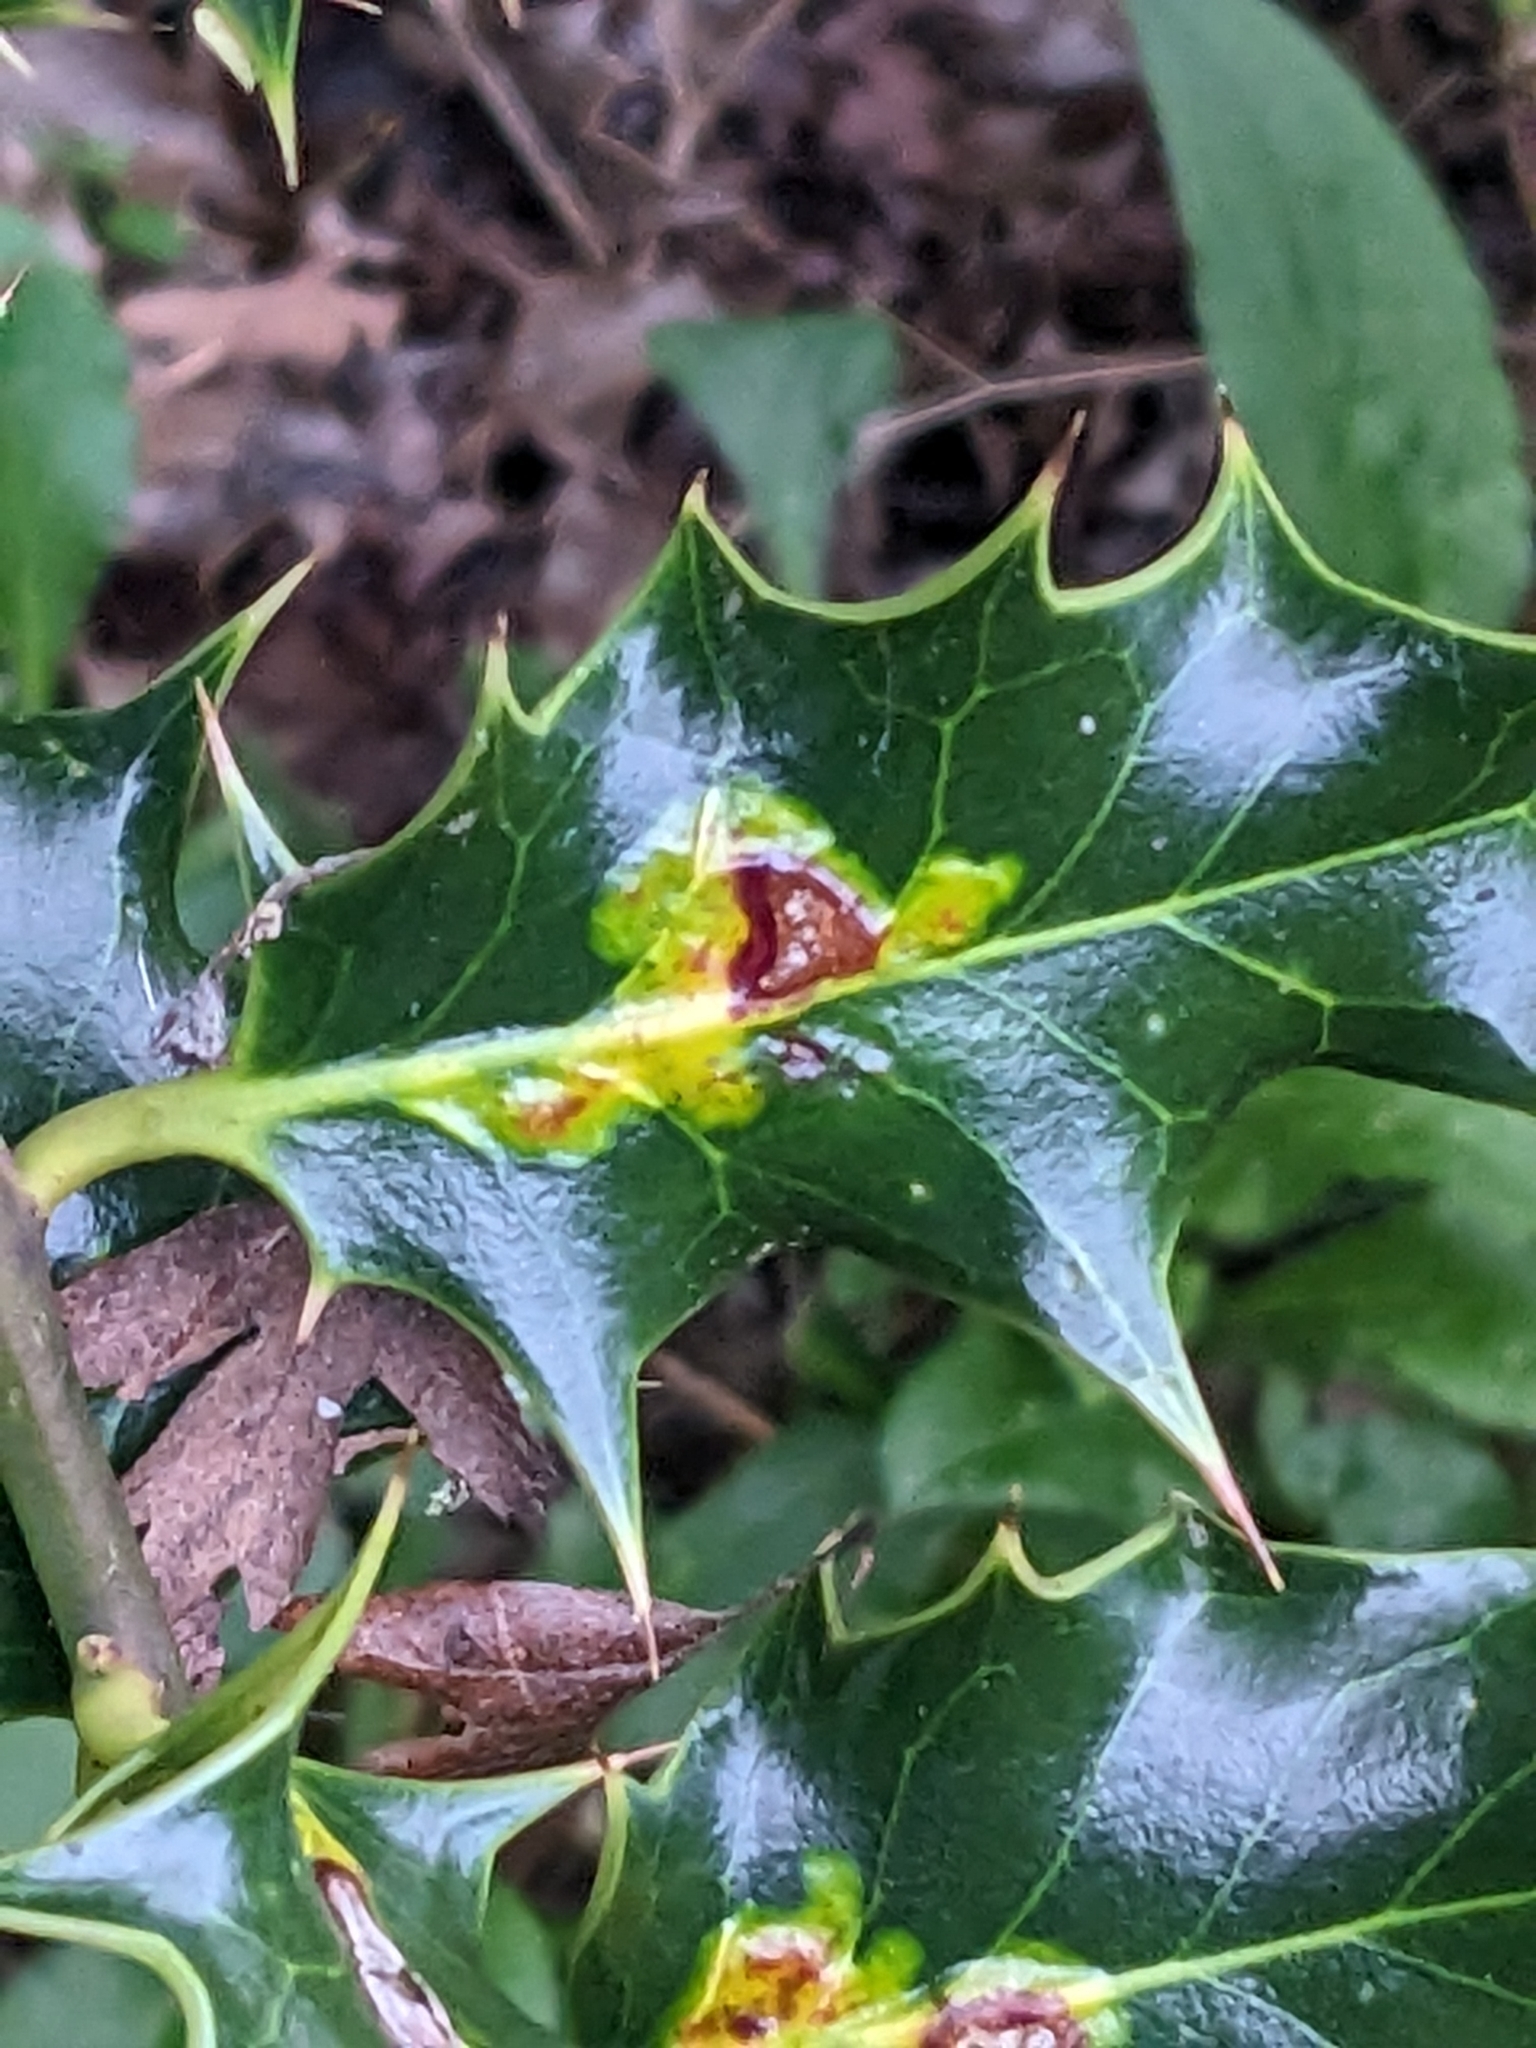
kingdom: Animalia
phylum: Arthropoda
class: Insecta
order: Diptera
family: Agromyzidae
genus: Phytomyza
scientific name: Phytomyza ilicis
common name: Holly leafminer
